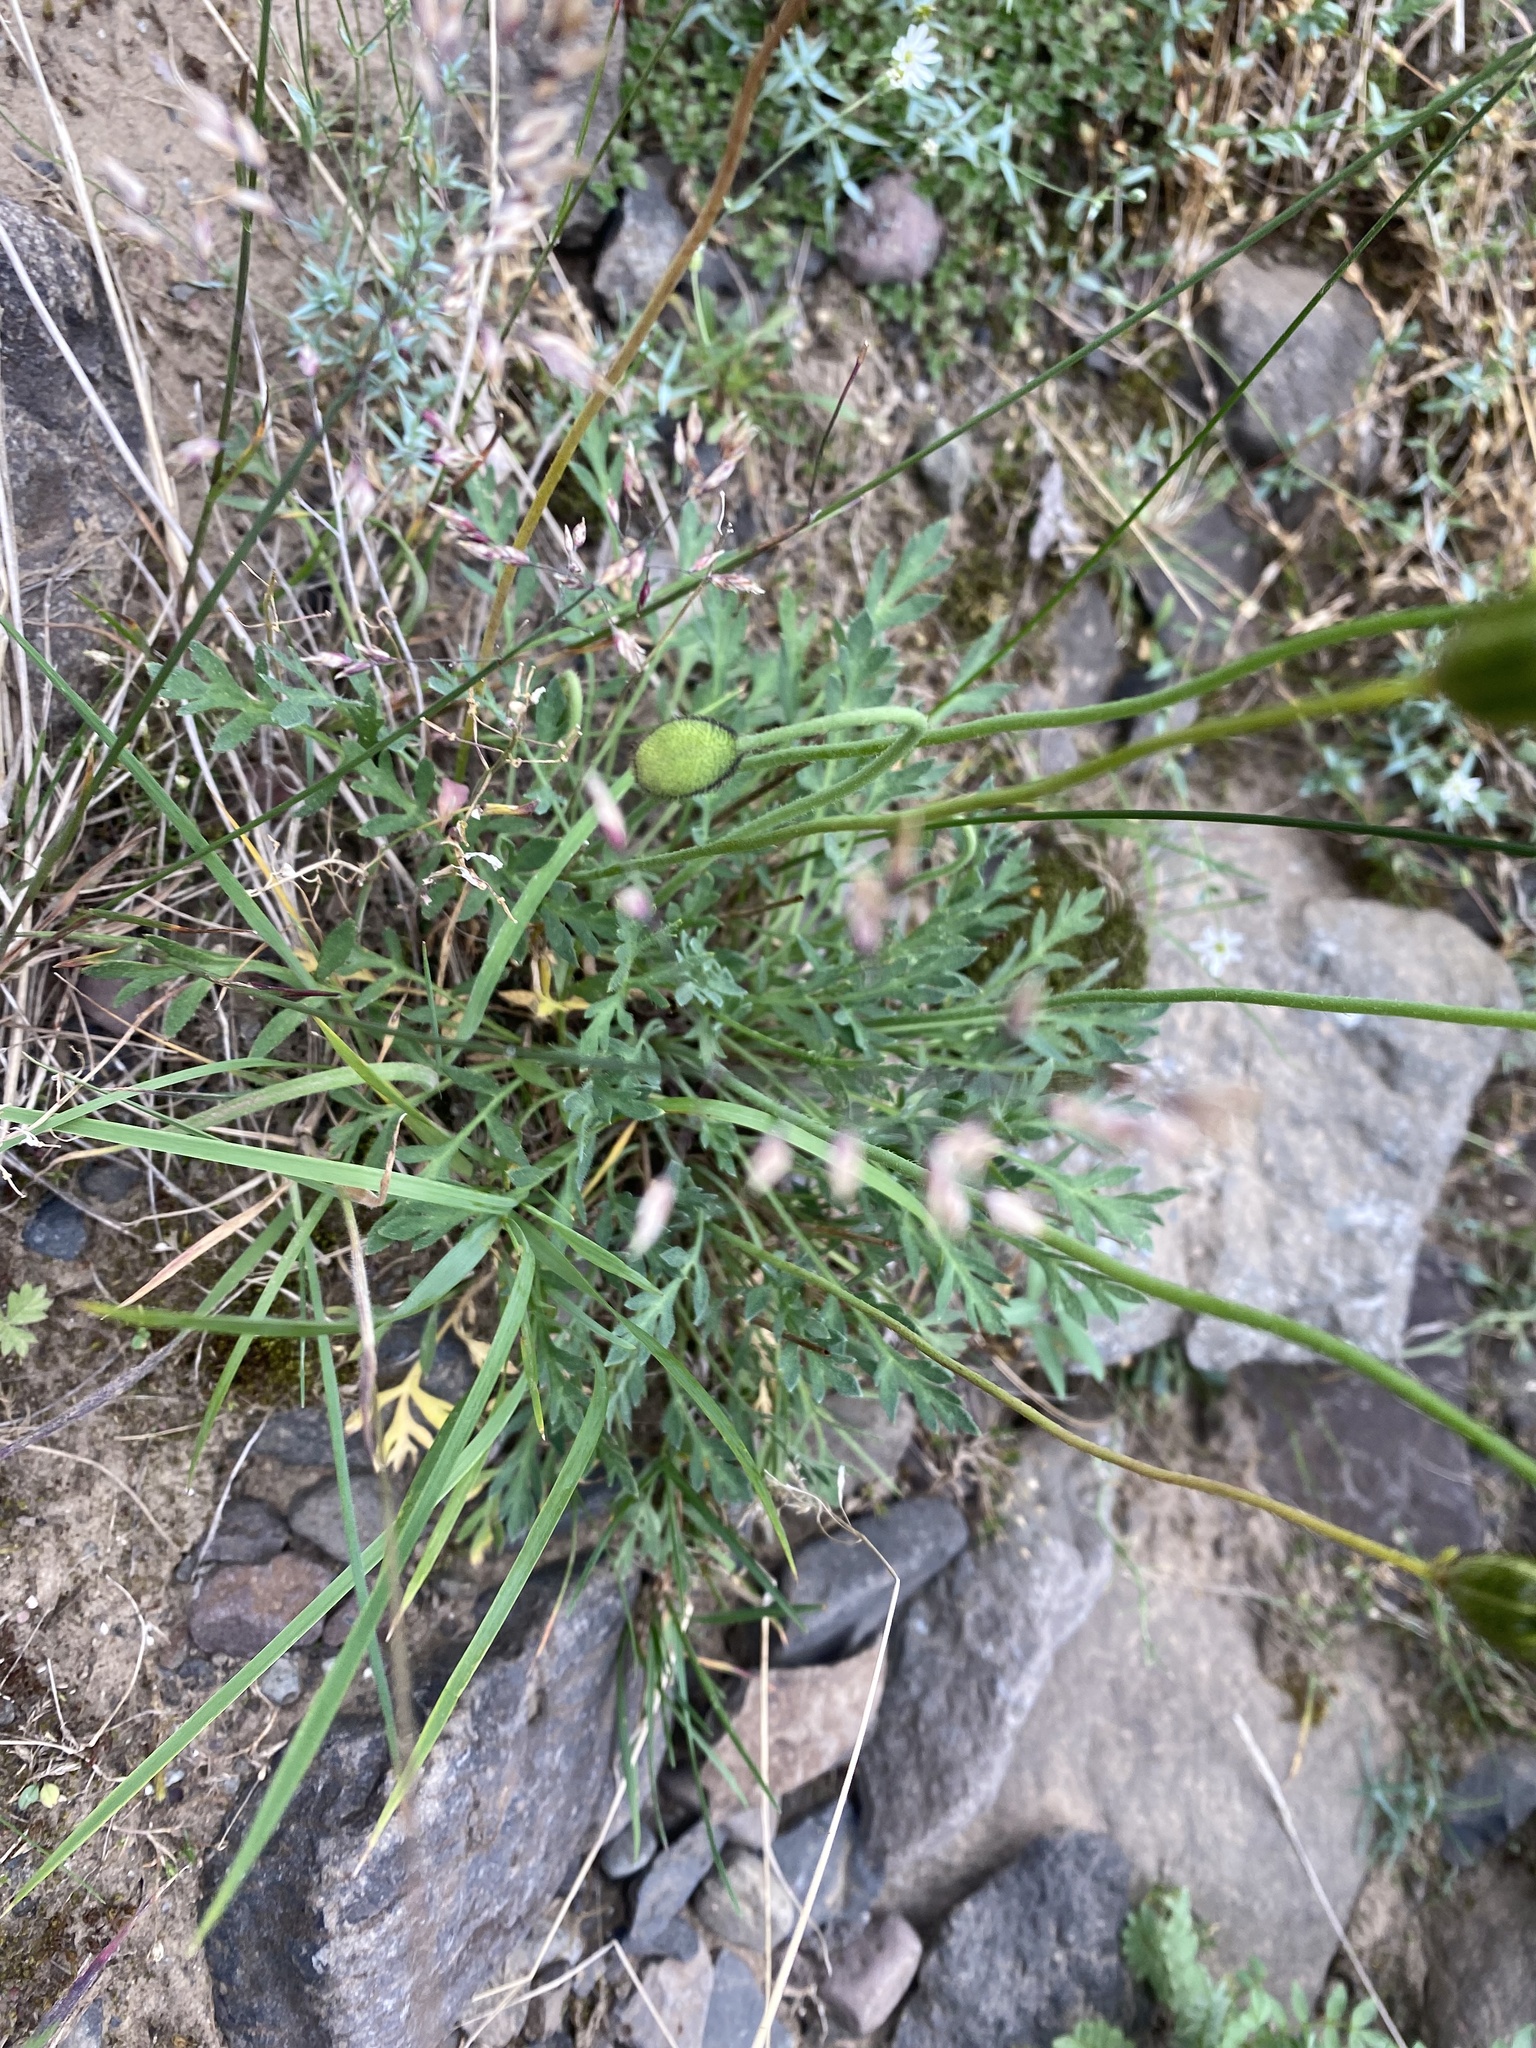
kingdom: Plantae
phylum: Tracheophyta
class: Magnoliopsida
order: Ranunculales
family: Papaveraceae
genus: Papaver
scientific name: Papaver angustifolium
